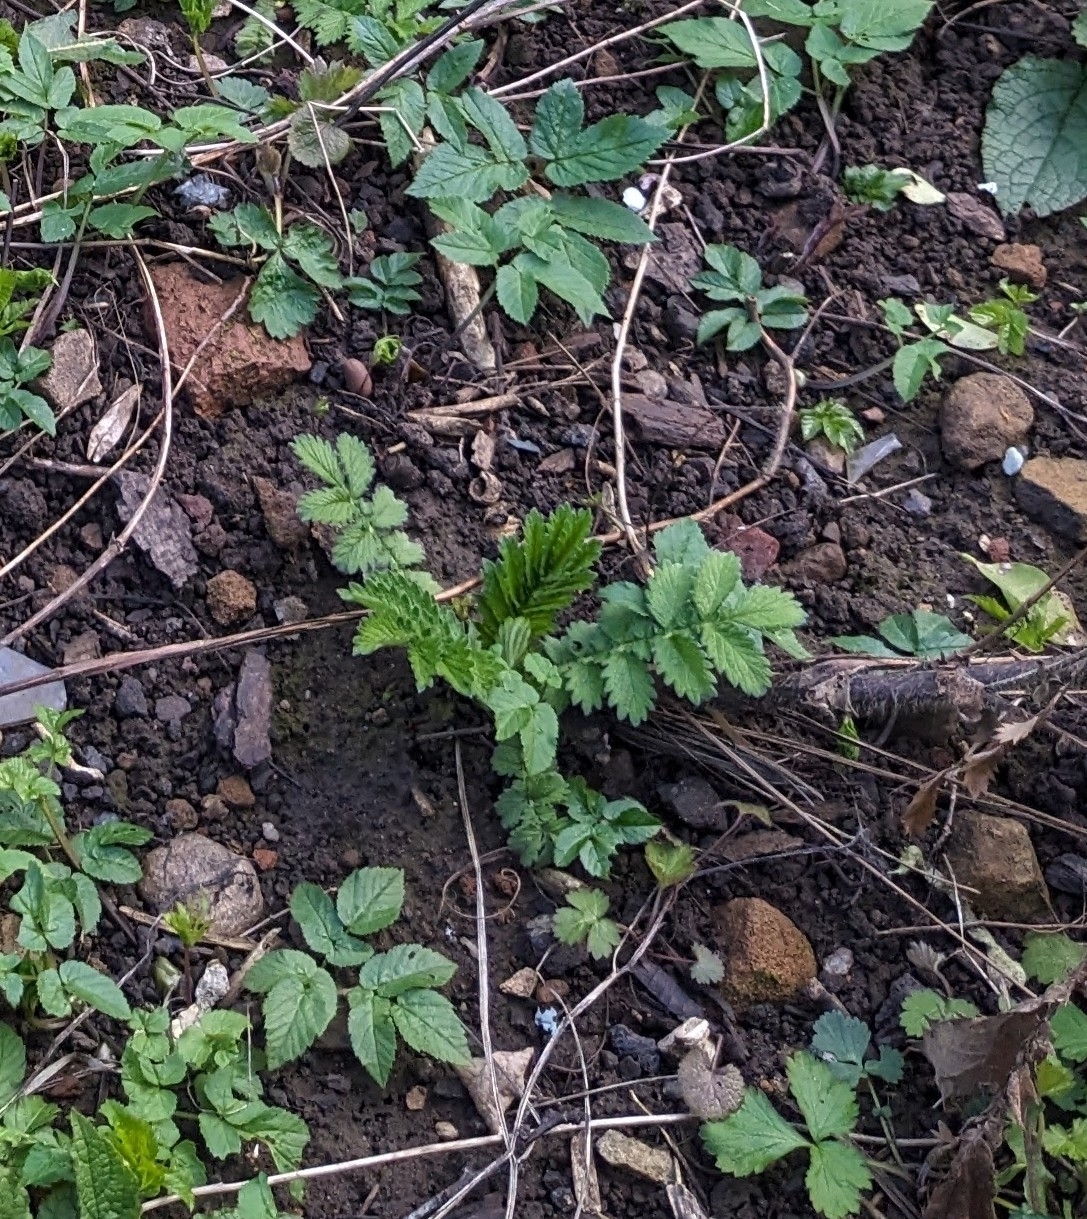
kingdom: Plantae
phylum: Tracheophyta
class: Magnoliopsida
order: Rosales
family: Rosaceae
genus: Argentina
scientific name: Argentina anserina
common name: Common silverweed
